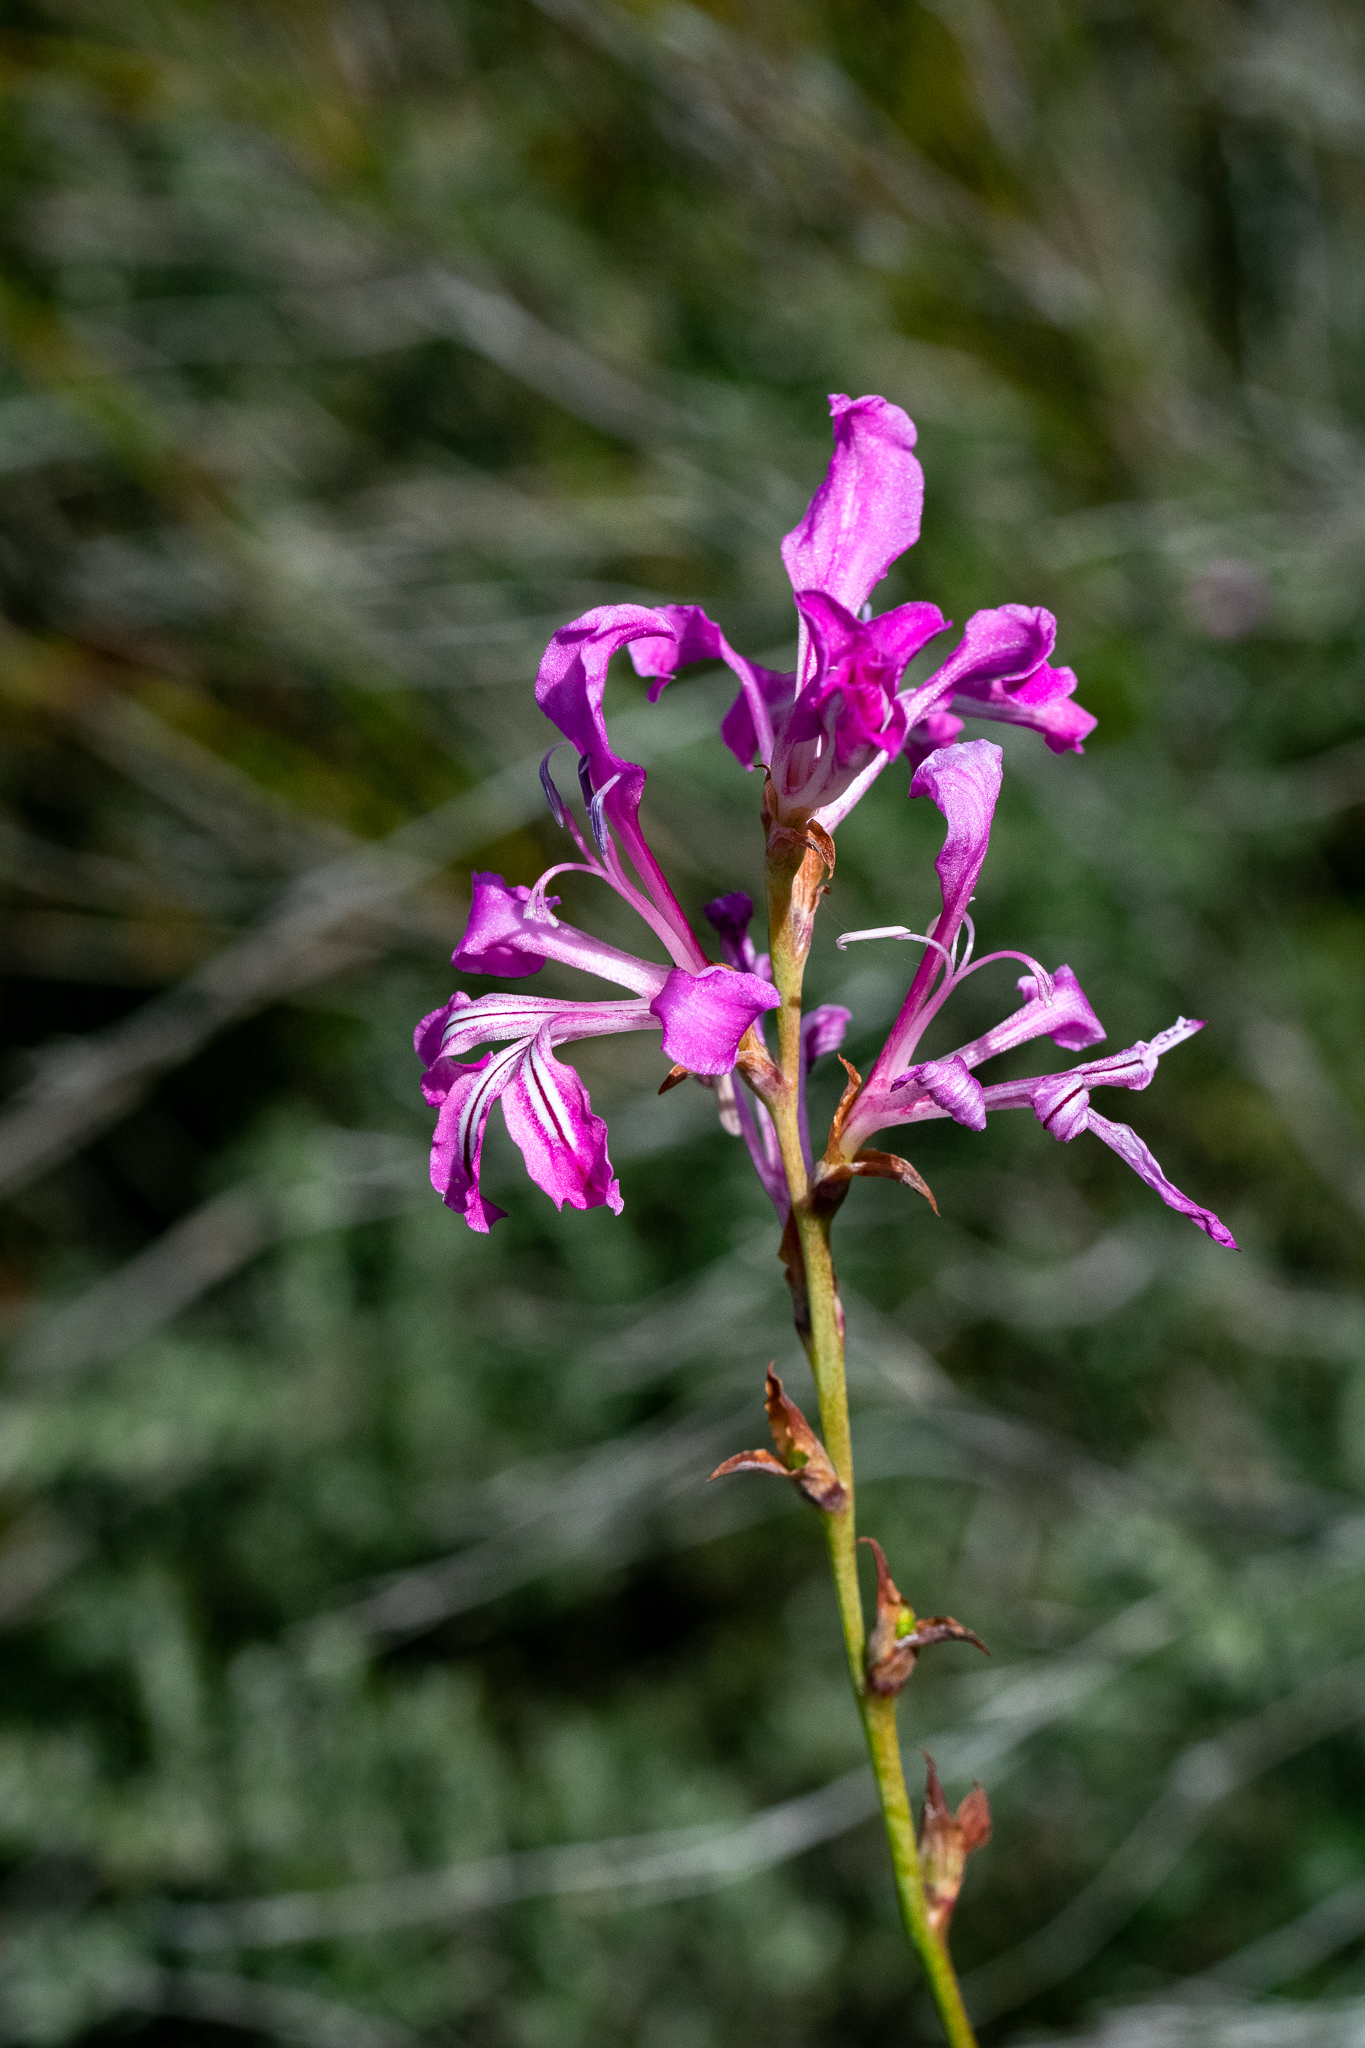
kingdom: Plantae
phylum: Tracheophyta
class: Liliopsida
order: Asparagales
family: Iridaceae
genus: Tritoniopsis
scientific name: Tritoniopsis lata
